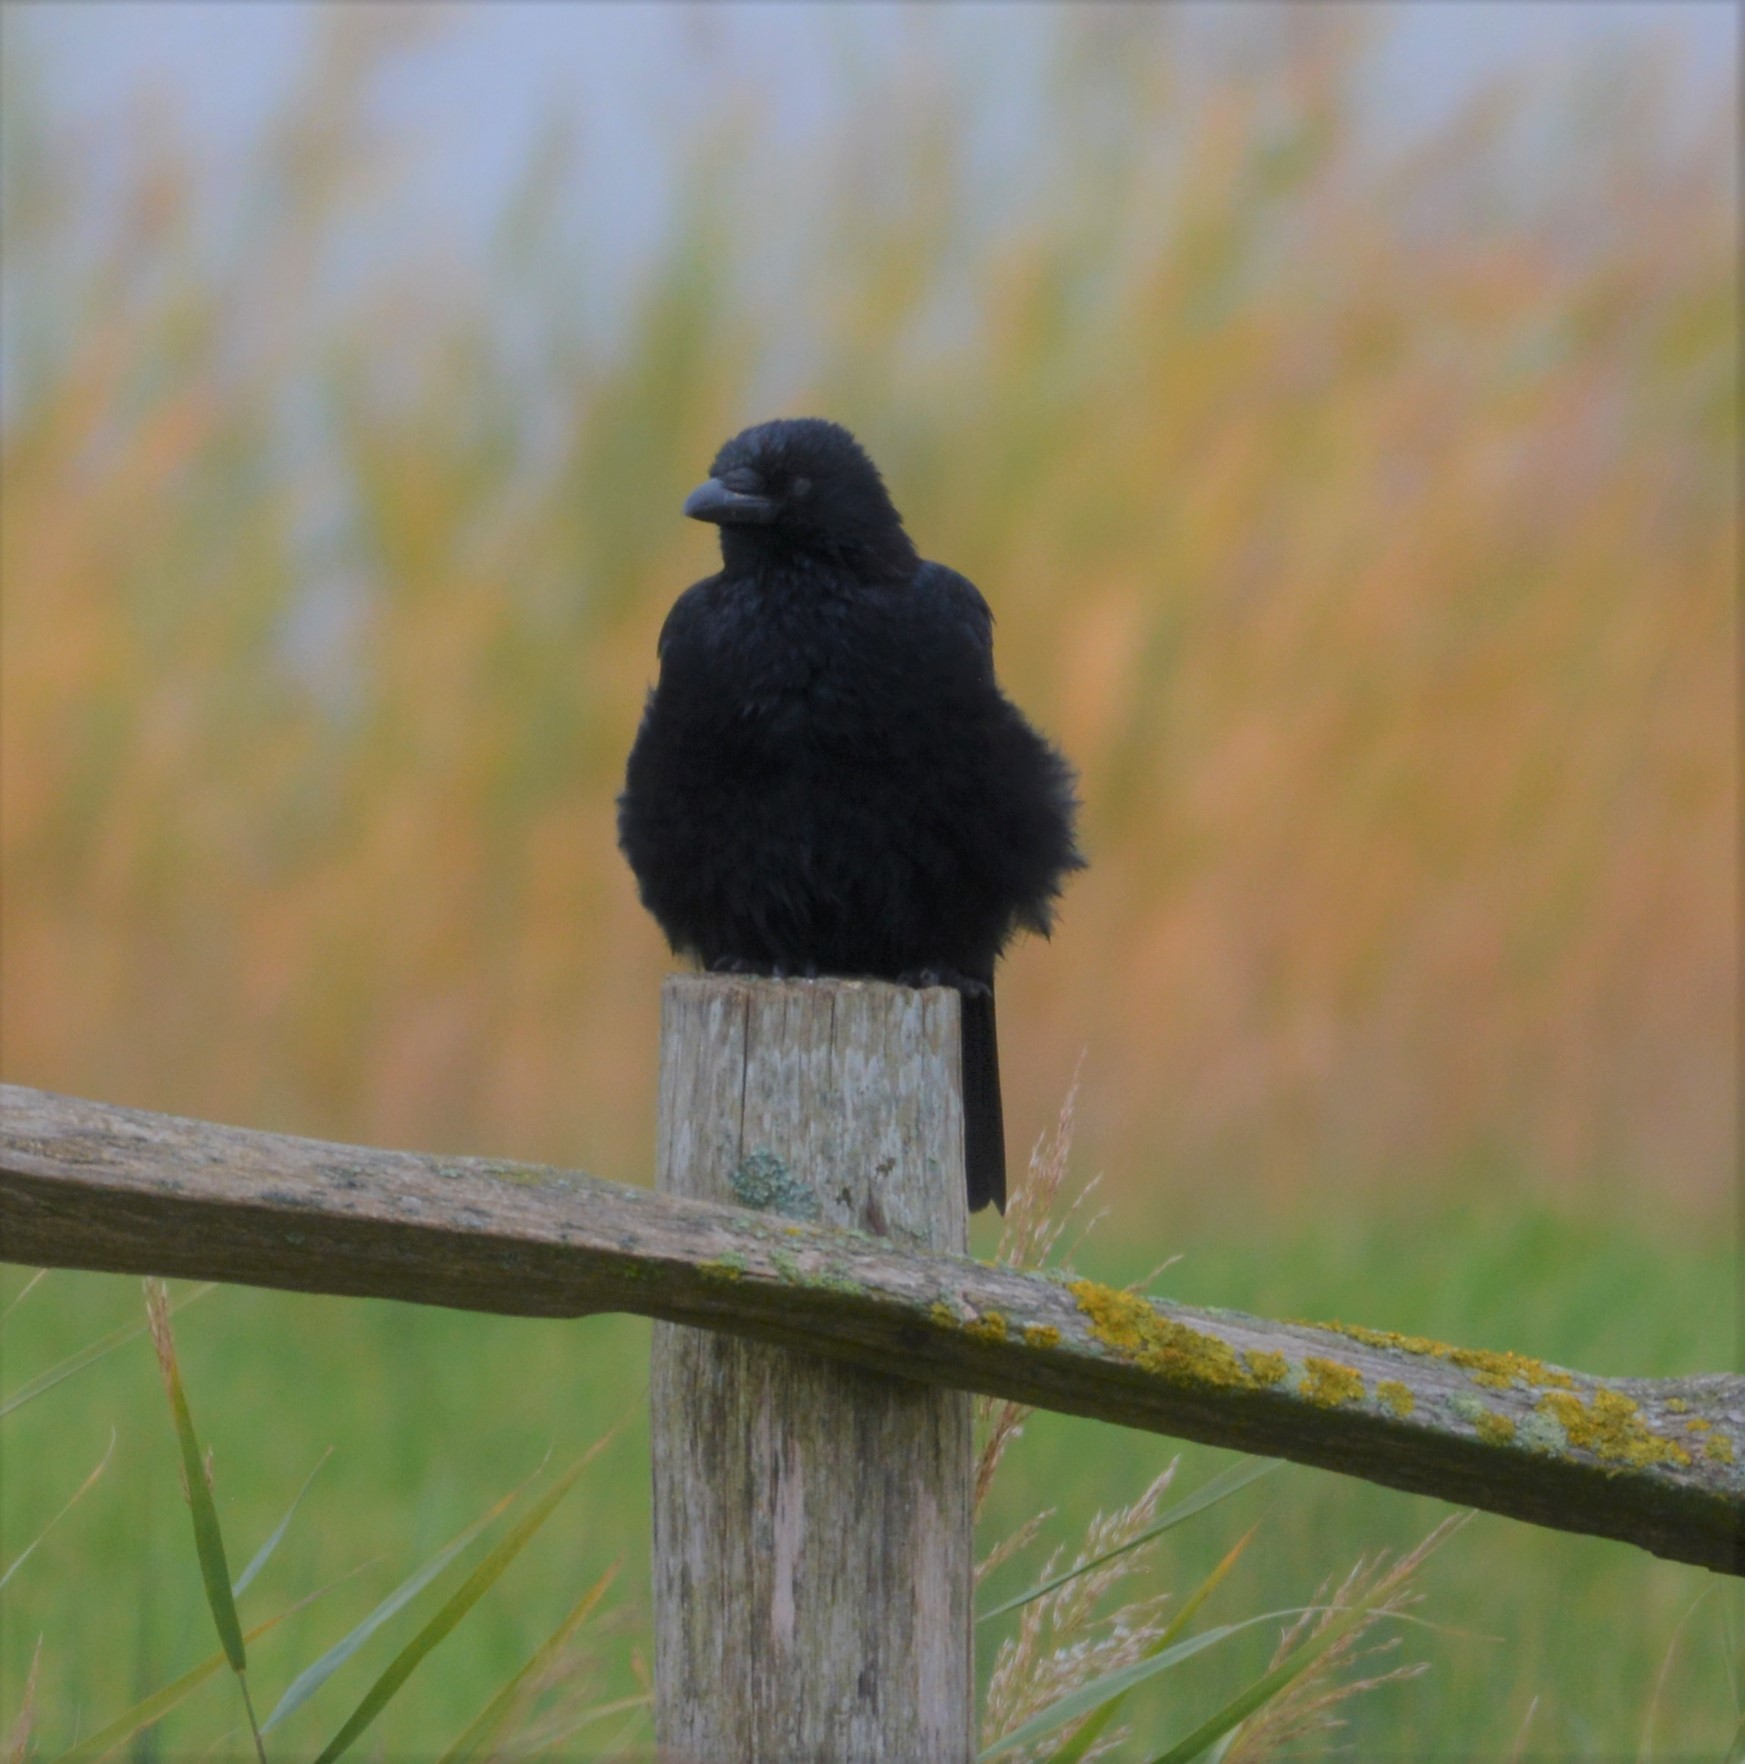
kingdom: Animalia
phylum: Chordata
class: Aves
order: Passeriformes
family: Corvidae
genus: Corvus
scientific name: Corvus corone
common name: Carrion crow
